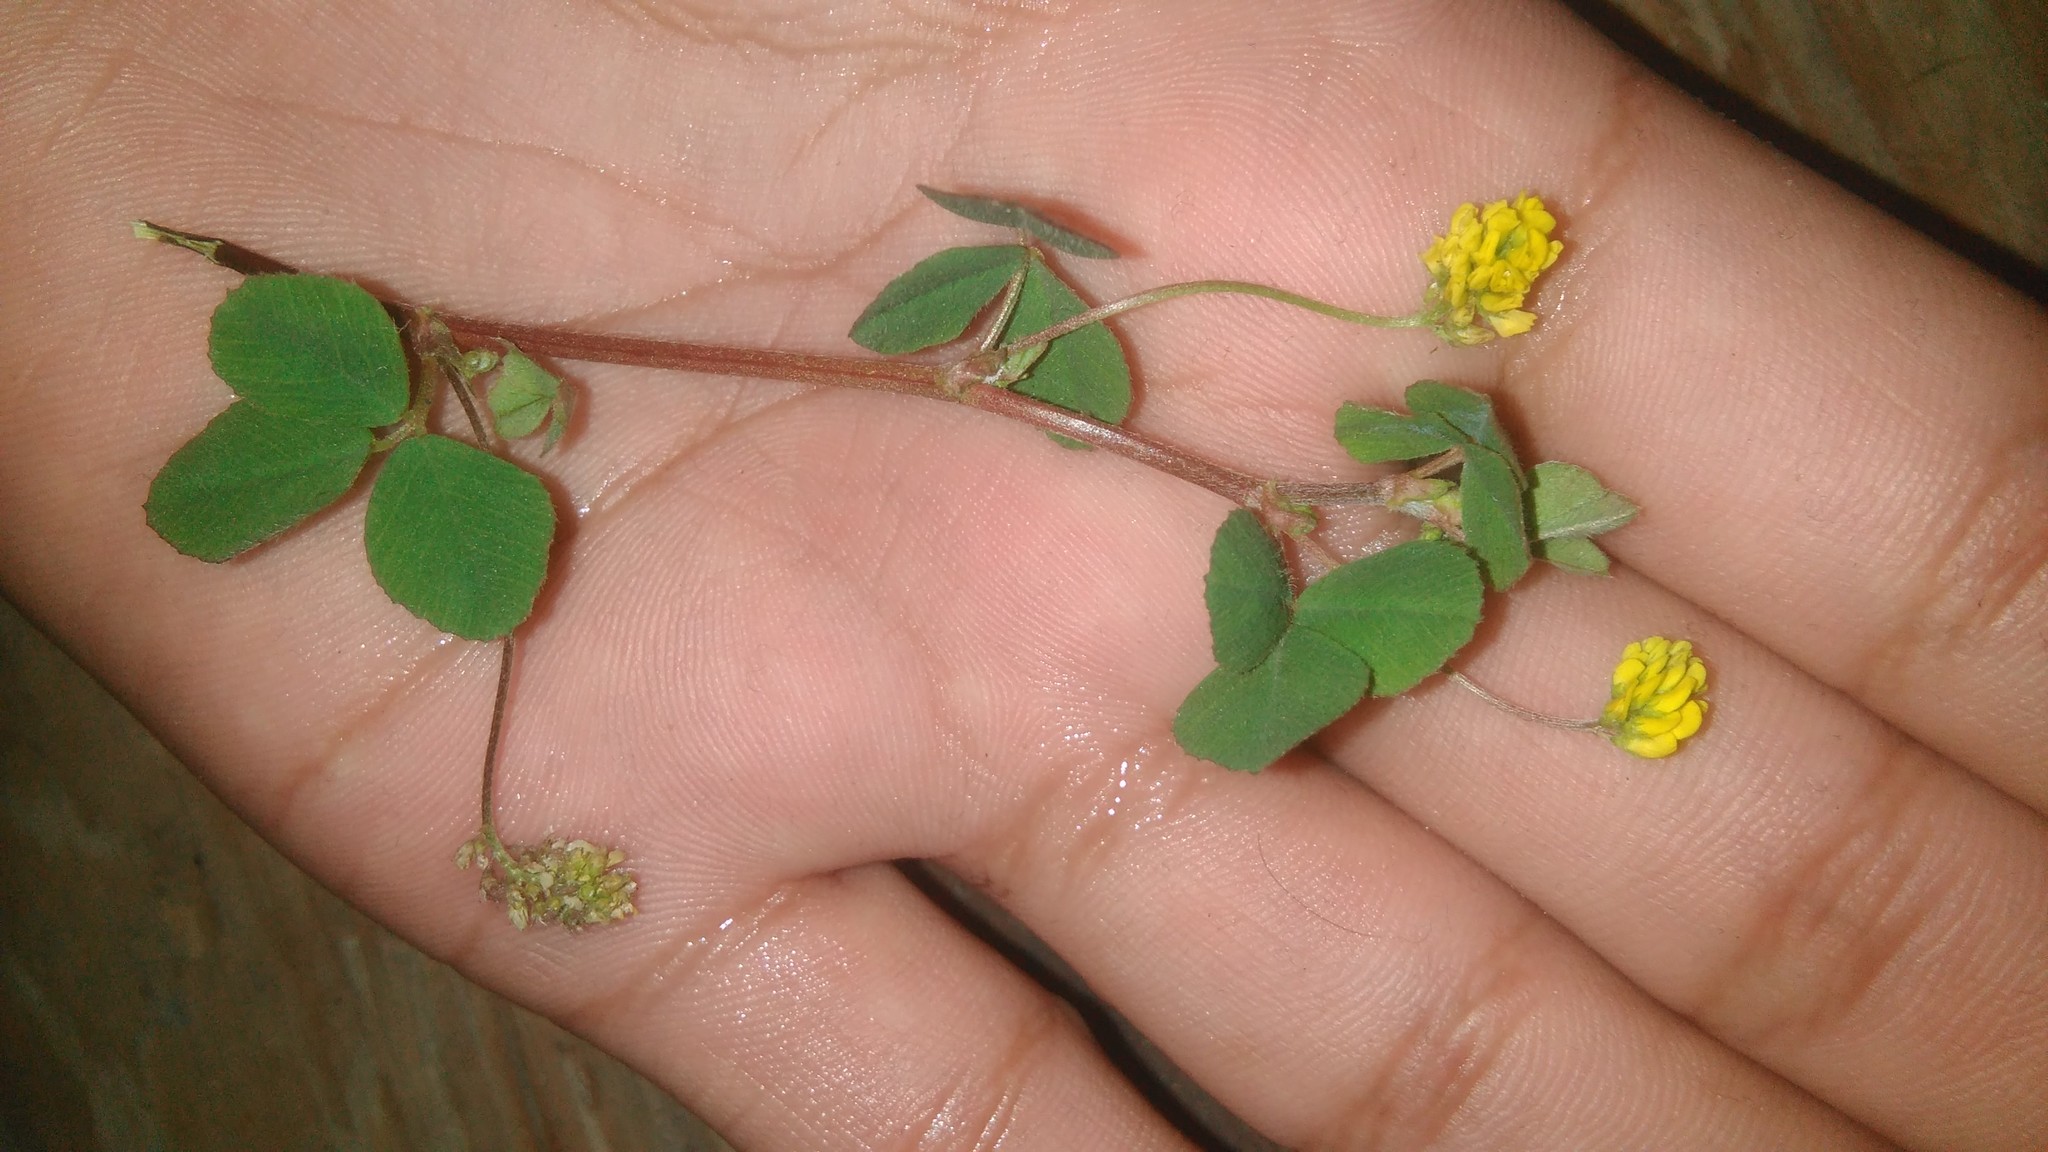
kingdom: Plantae
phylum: Tracheophyta
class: Magnoliopsida
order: Fabales
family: Fabaceae
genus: Medicago
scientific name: Medicago lupulina
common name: Black medick
